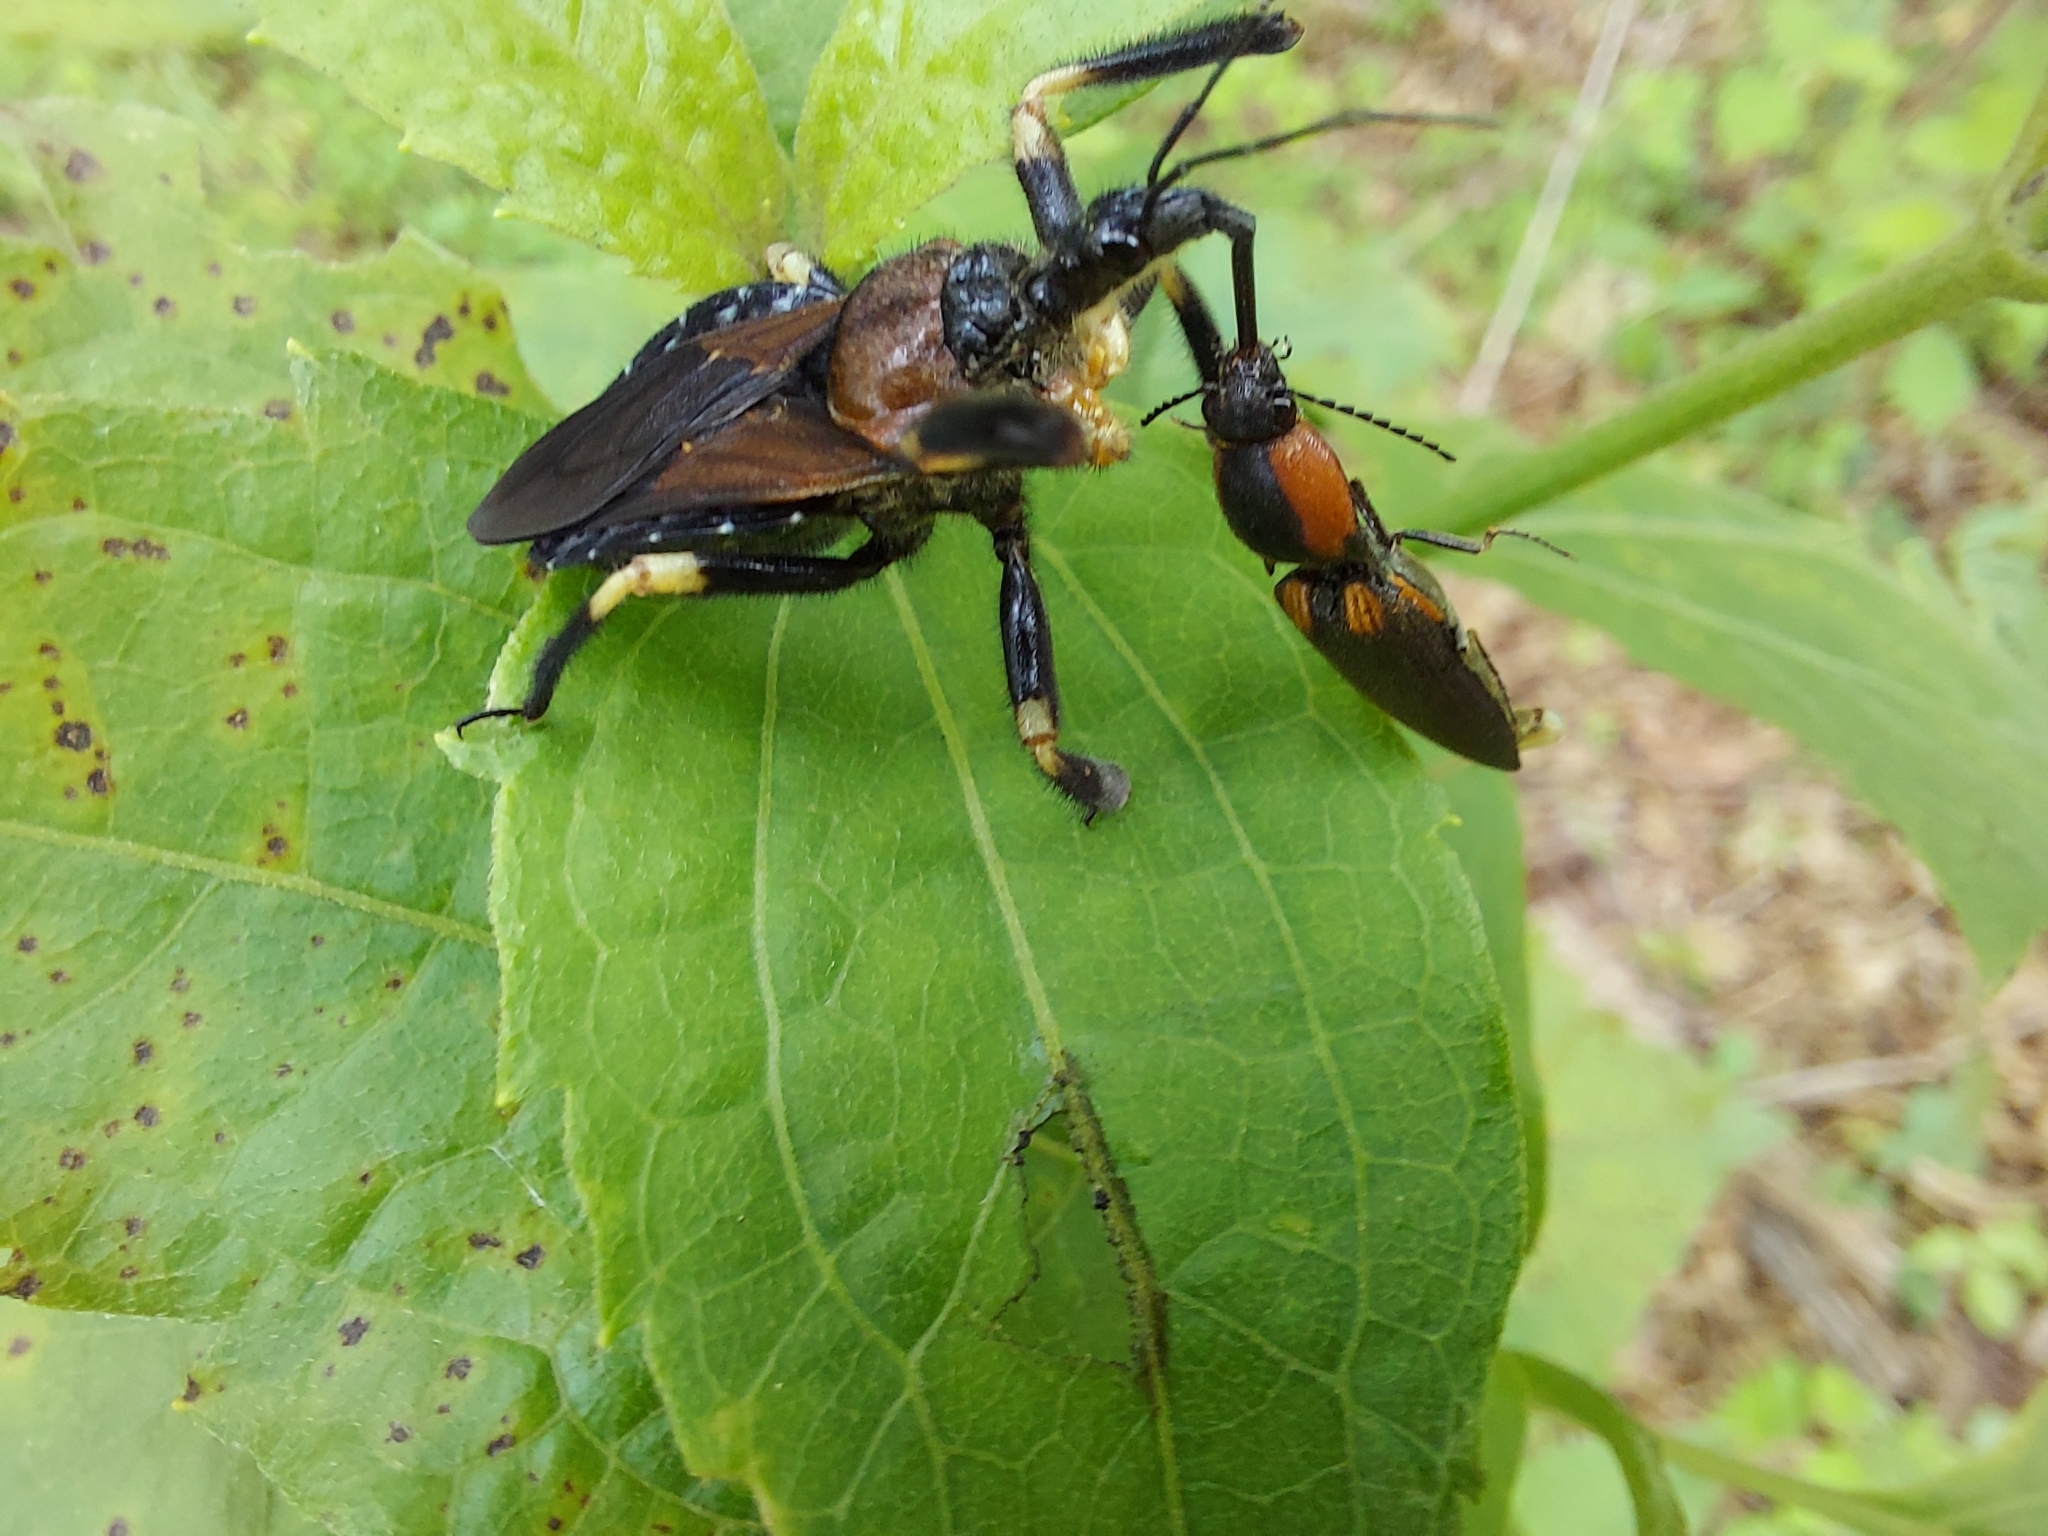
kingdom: Animalia
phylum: Arthropoda
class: Insecta
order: Hemiptera
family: Reduviidae
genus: Apiomerus
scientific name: Apiomerus mutabilis
